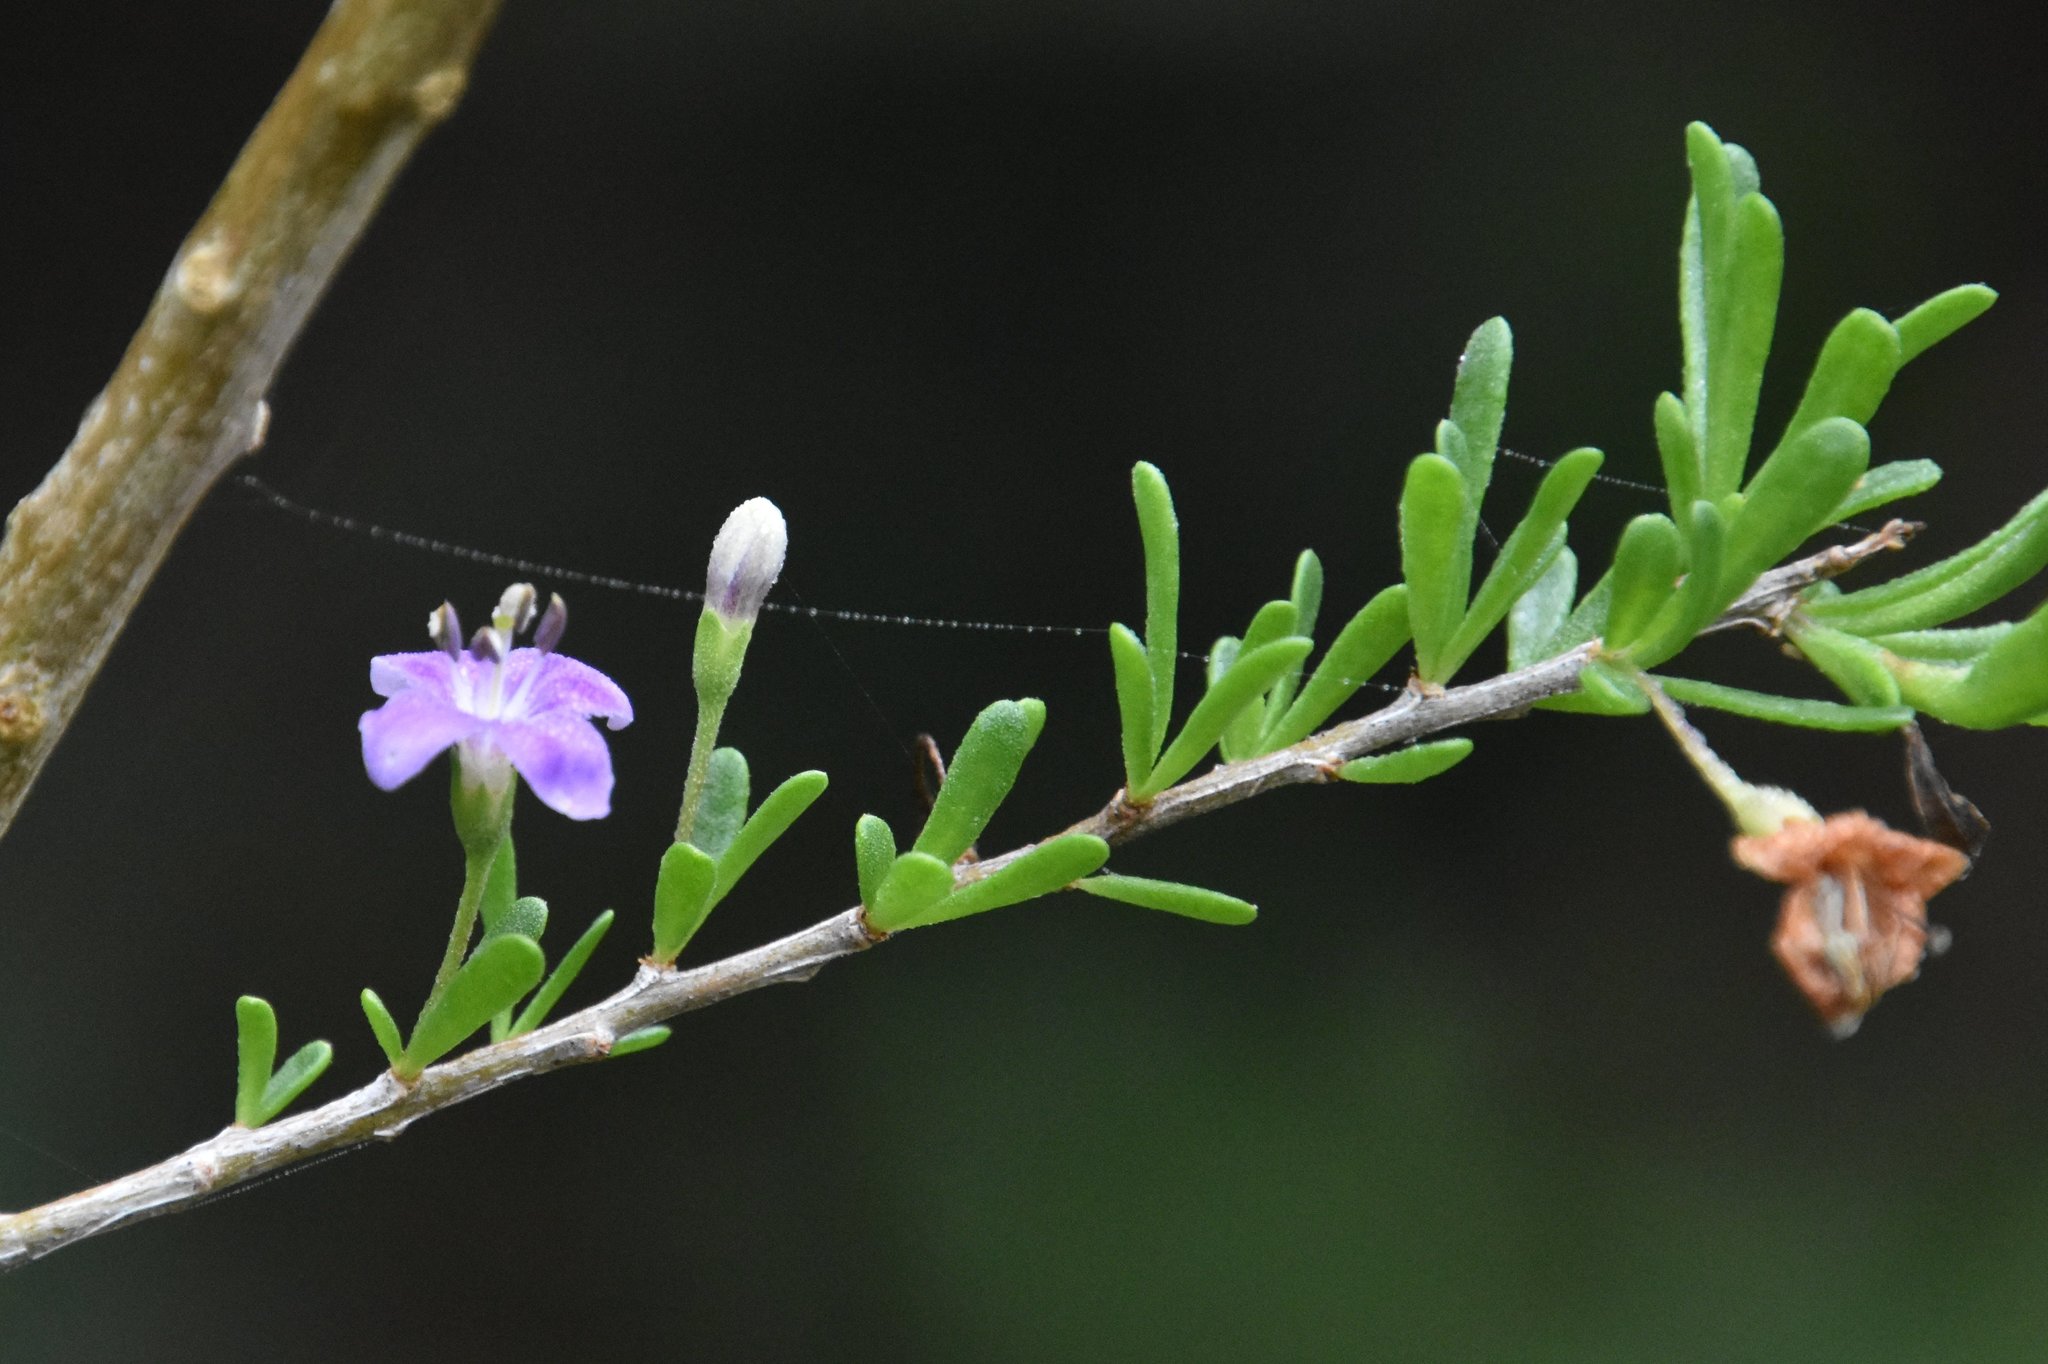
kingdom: Plantae
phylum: Tracheophyta
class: Magnoliopsida
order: Solanales
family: Solanaceae
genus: Lycium
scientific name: Lycium carolinianum
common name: Christmasberry
